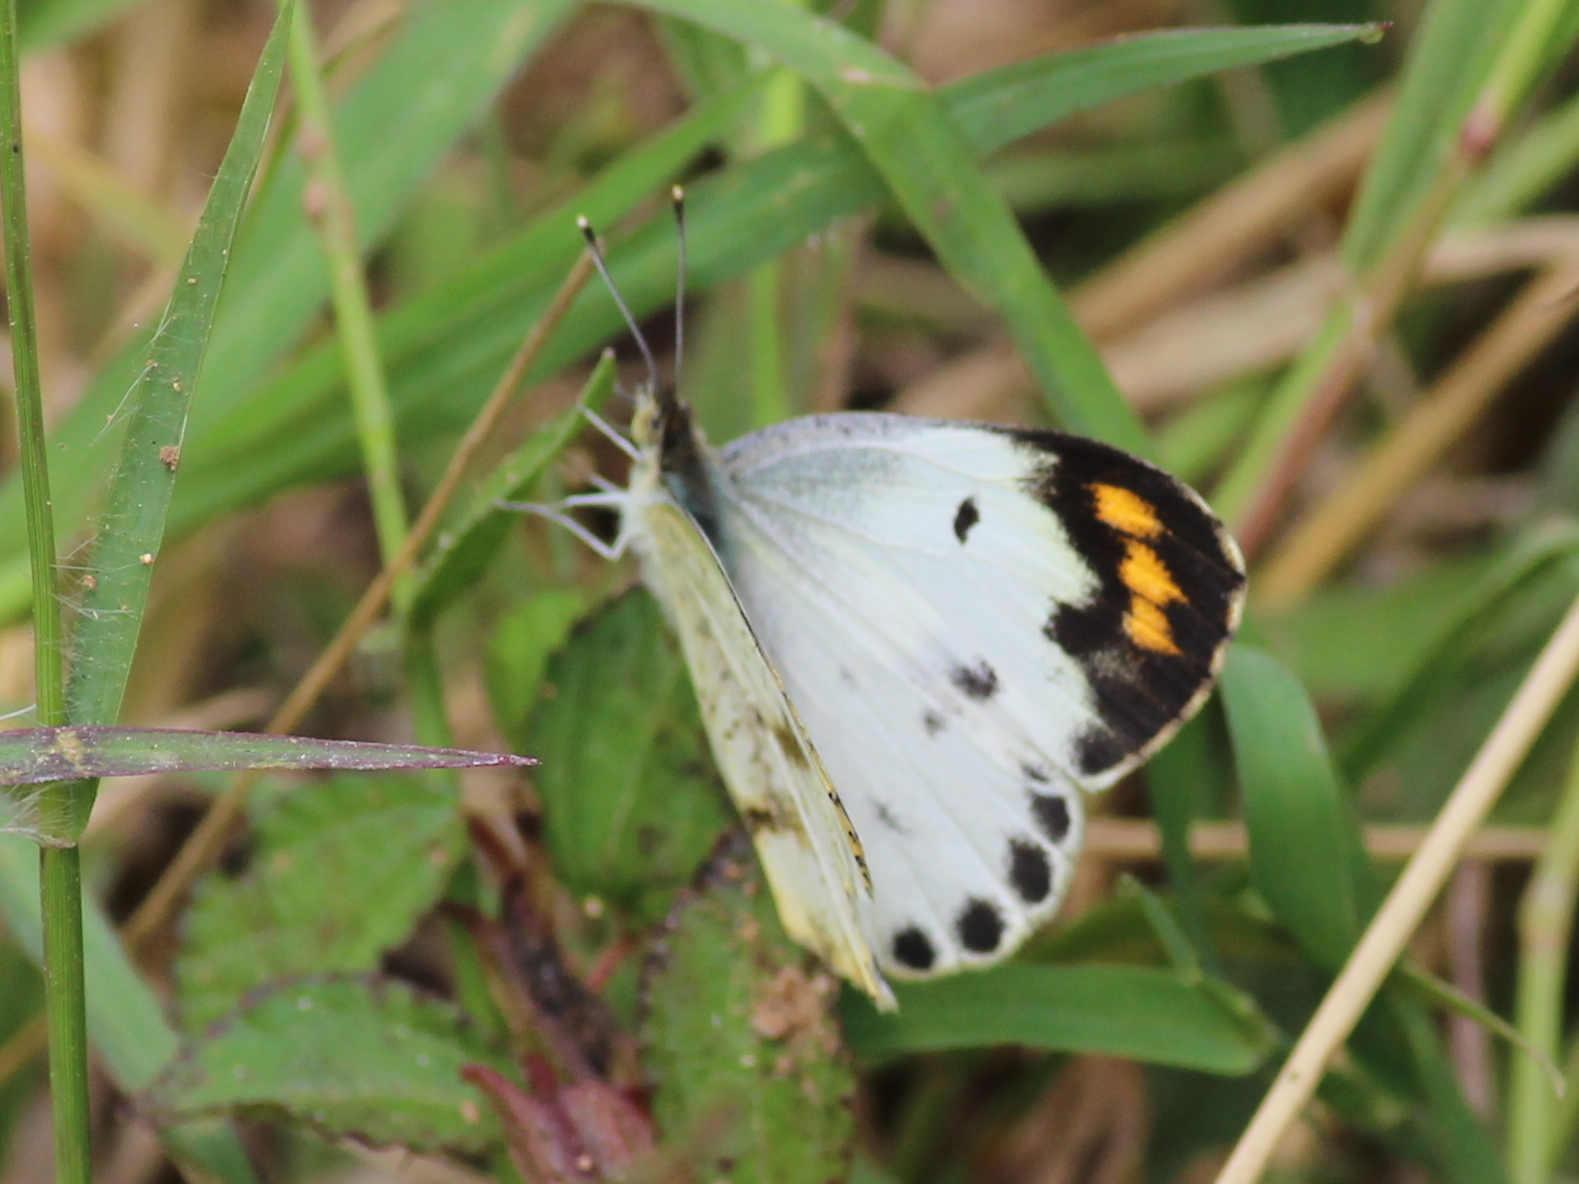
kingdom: Animalia
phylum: Arthropoda
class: Insecta
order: Lepidoptera
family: Pieridae
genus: Colotis
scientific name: Colotis aurora
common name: Plain orange-tip
